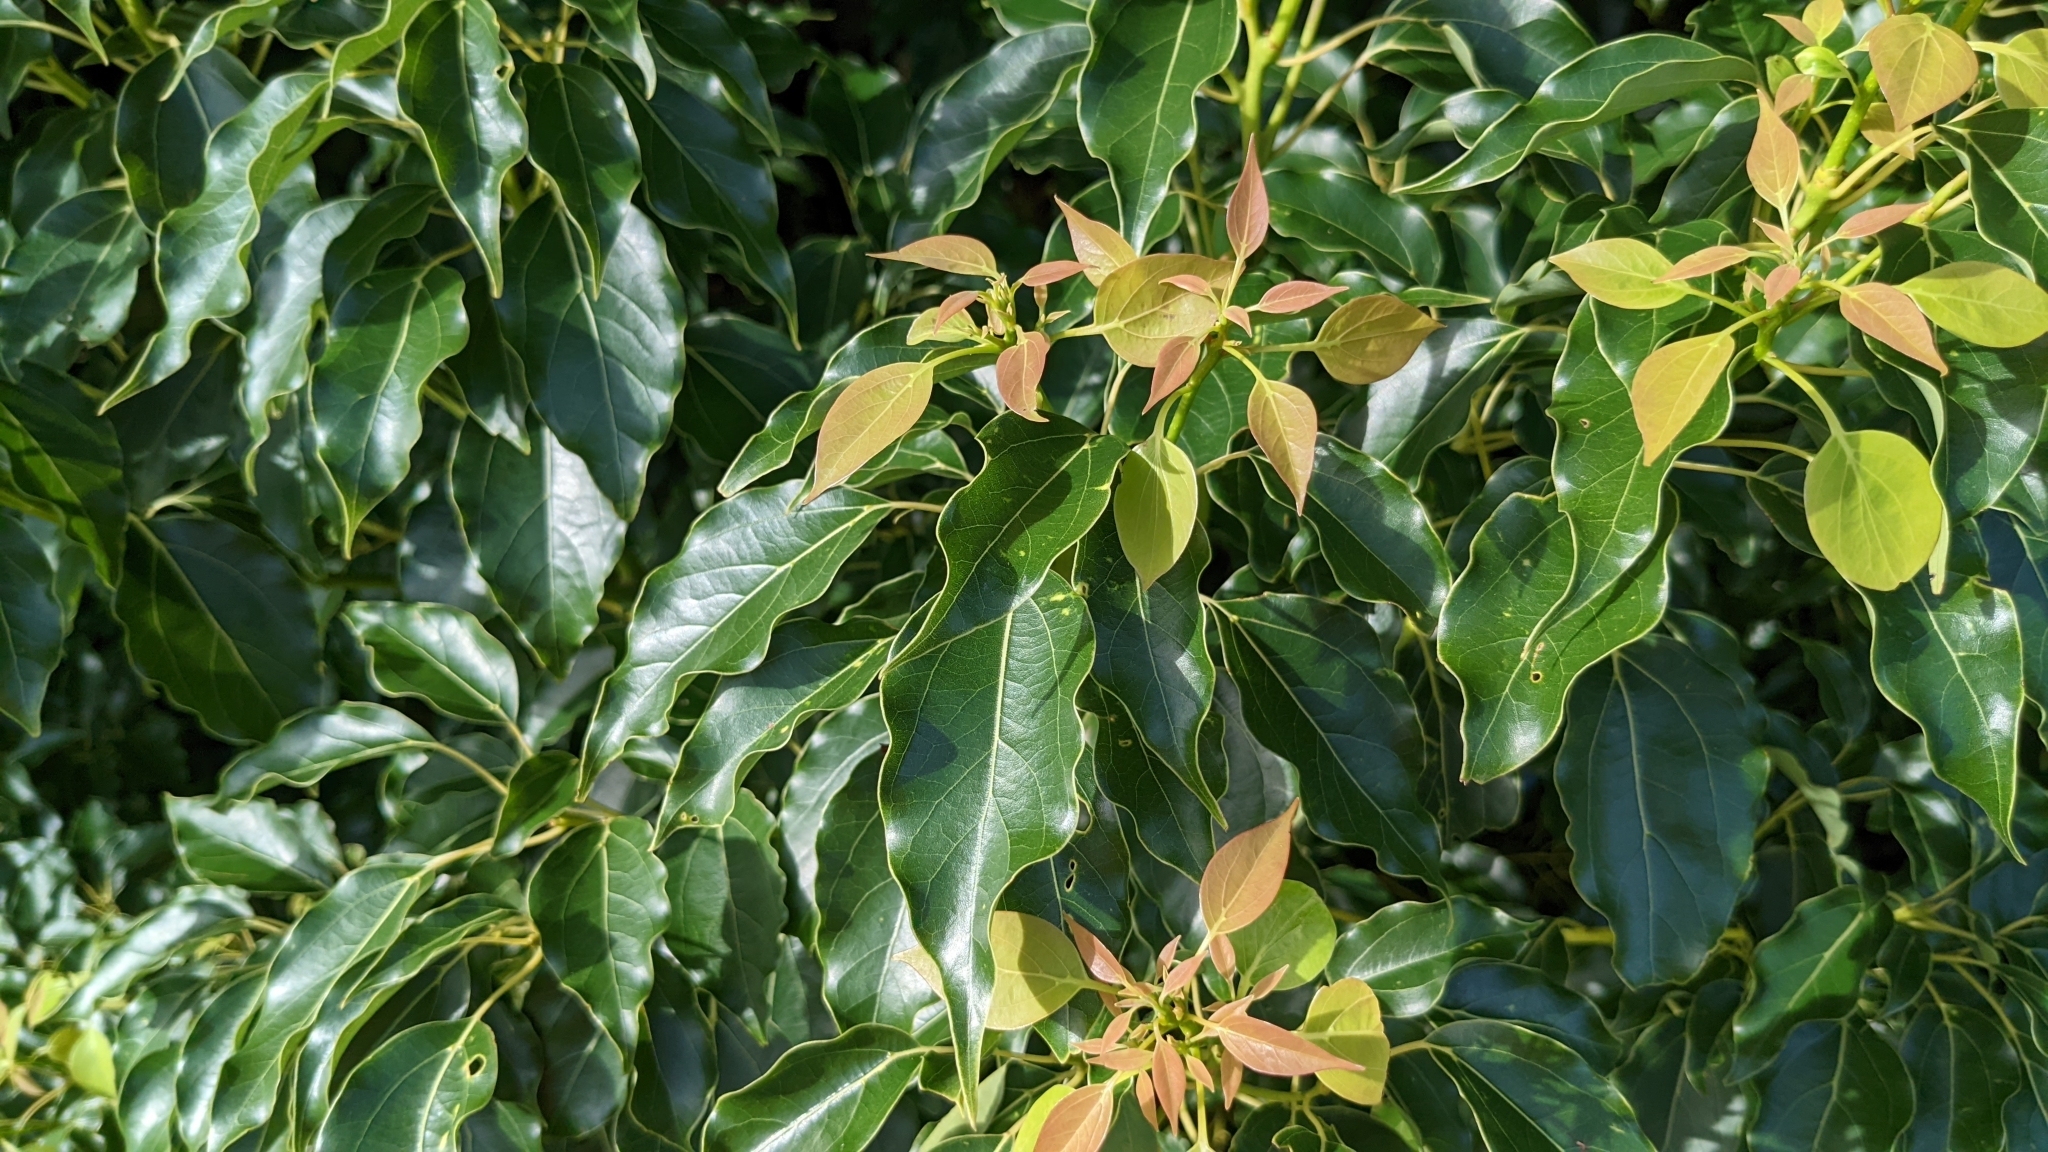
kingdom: Plantae
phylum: Tracheophyta
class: Magnoliopsida
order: Laurales
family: Lauraceae
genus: Cinnamomum
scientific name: Cinnamomum camphora
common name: Camphortree
